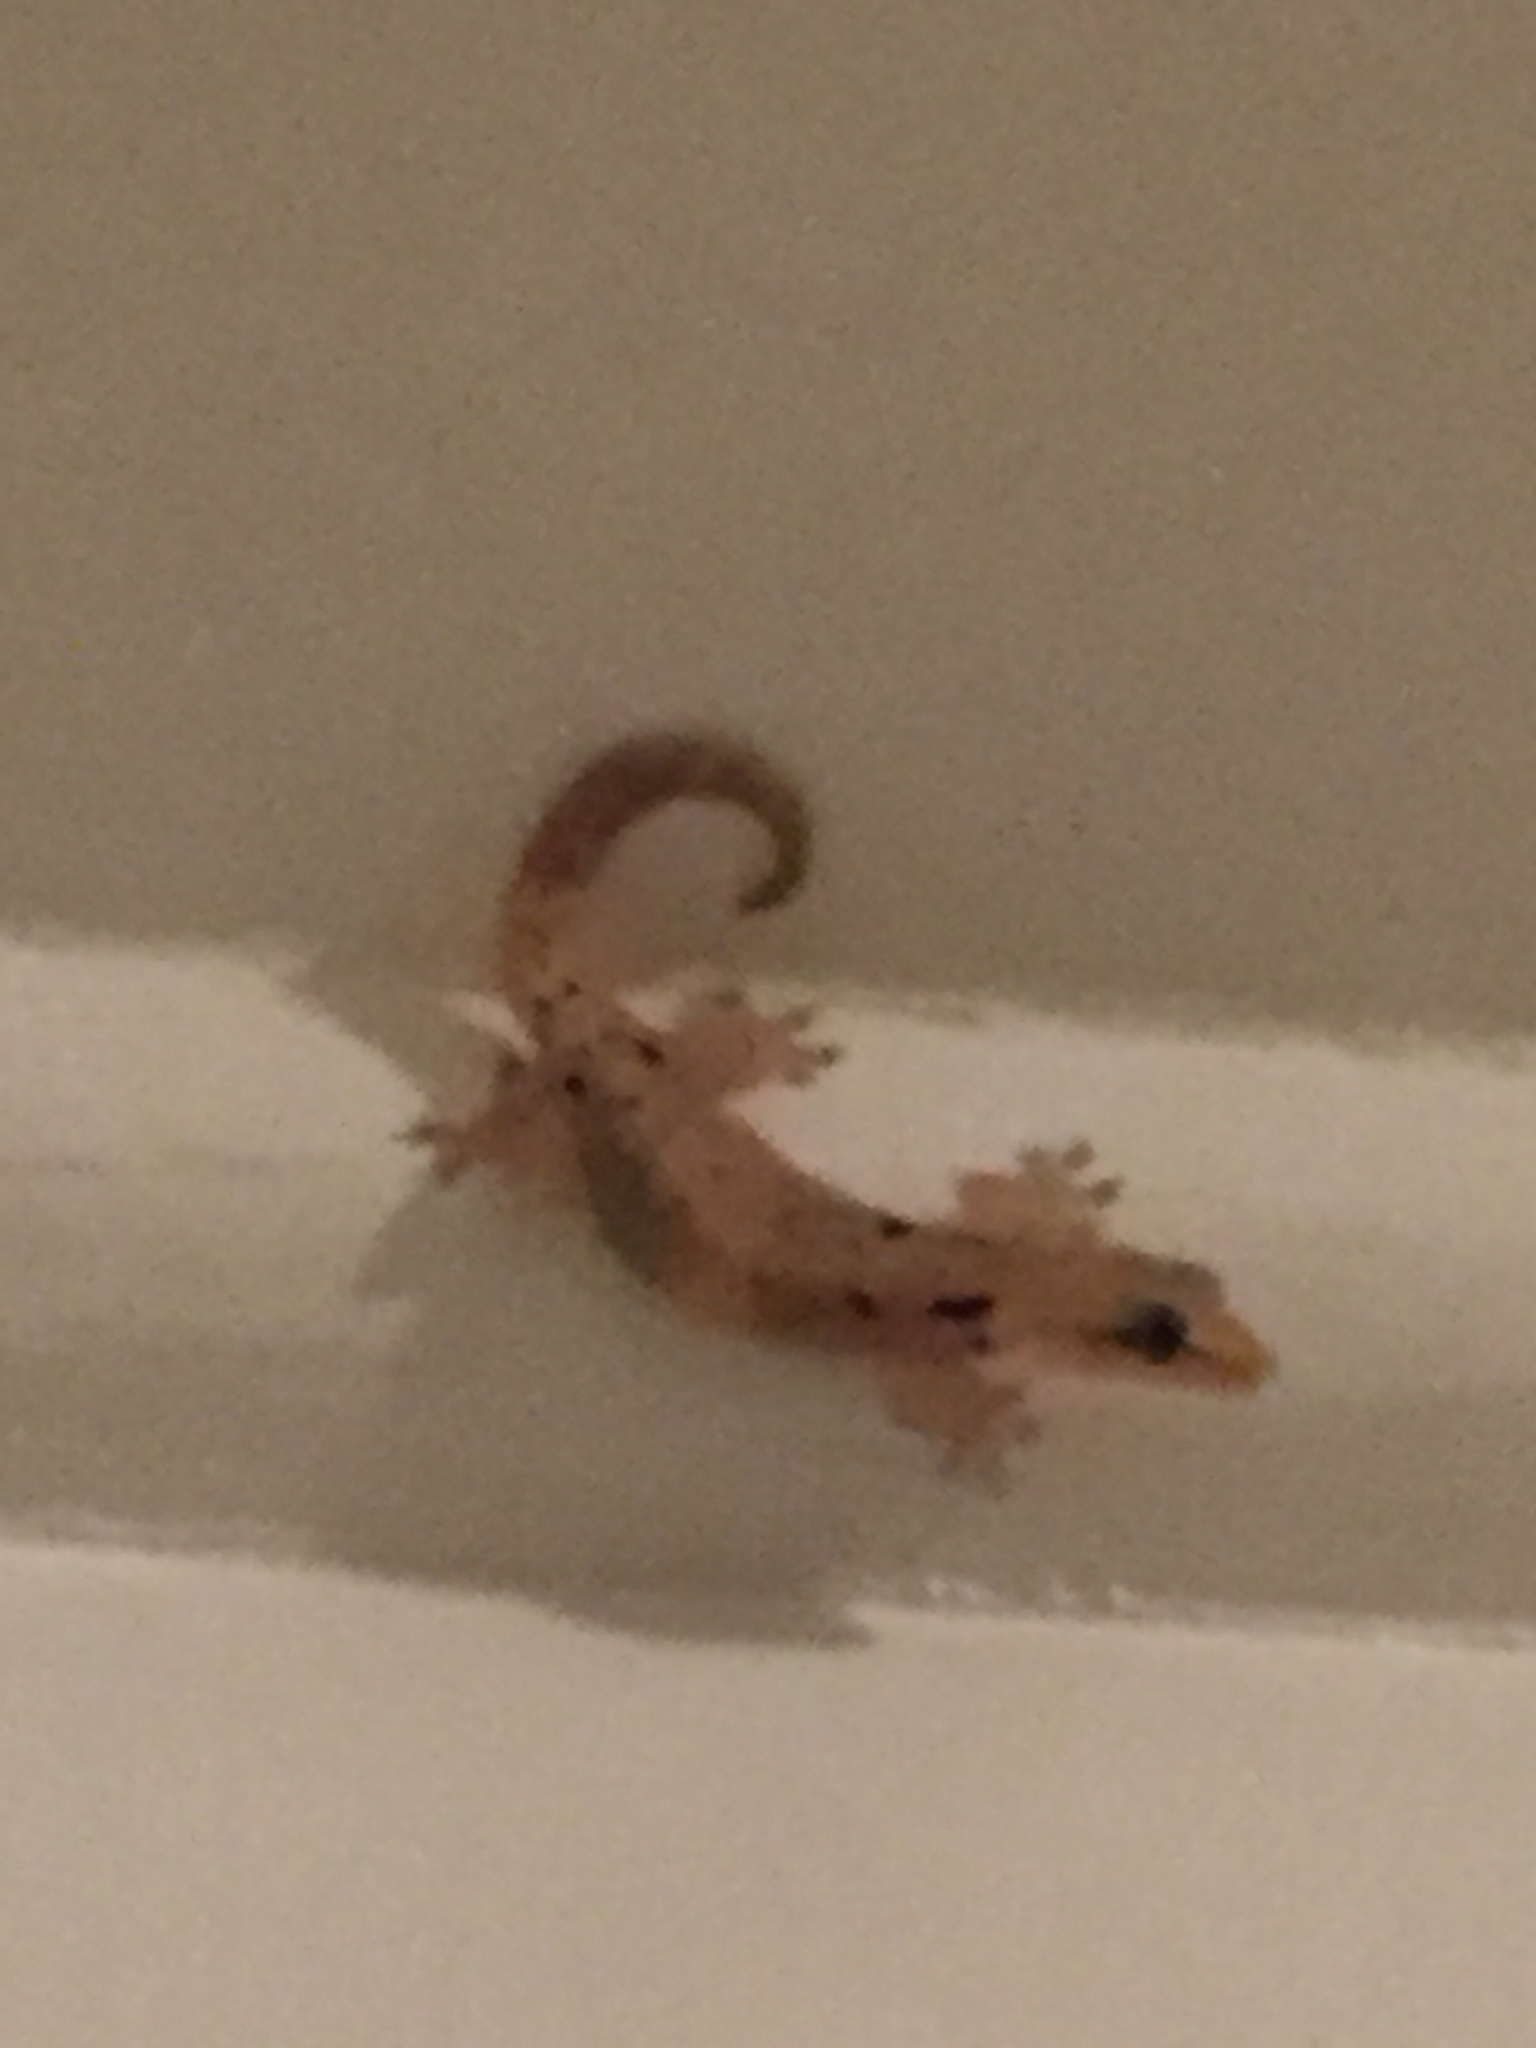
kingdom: Animalia
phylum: Chordata
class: Squamata
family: Gekkonidae
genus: Lepidodactylus
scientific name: Lepidodactylus lugubris
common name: Mourning gecko
